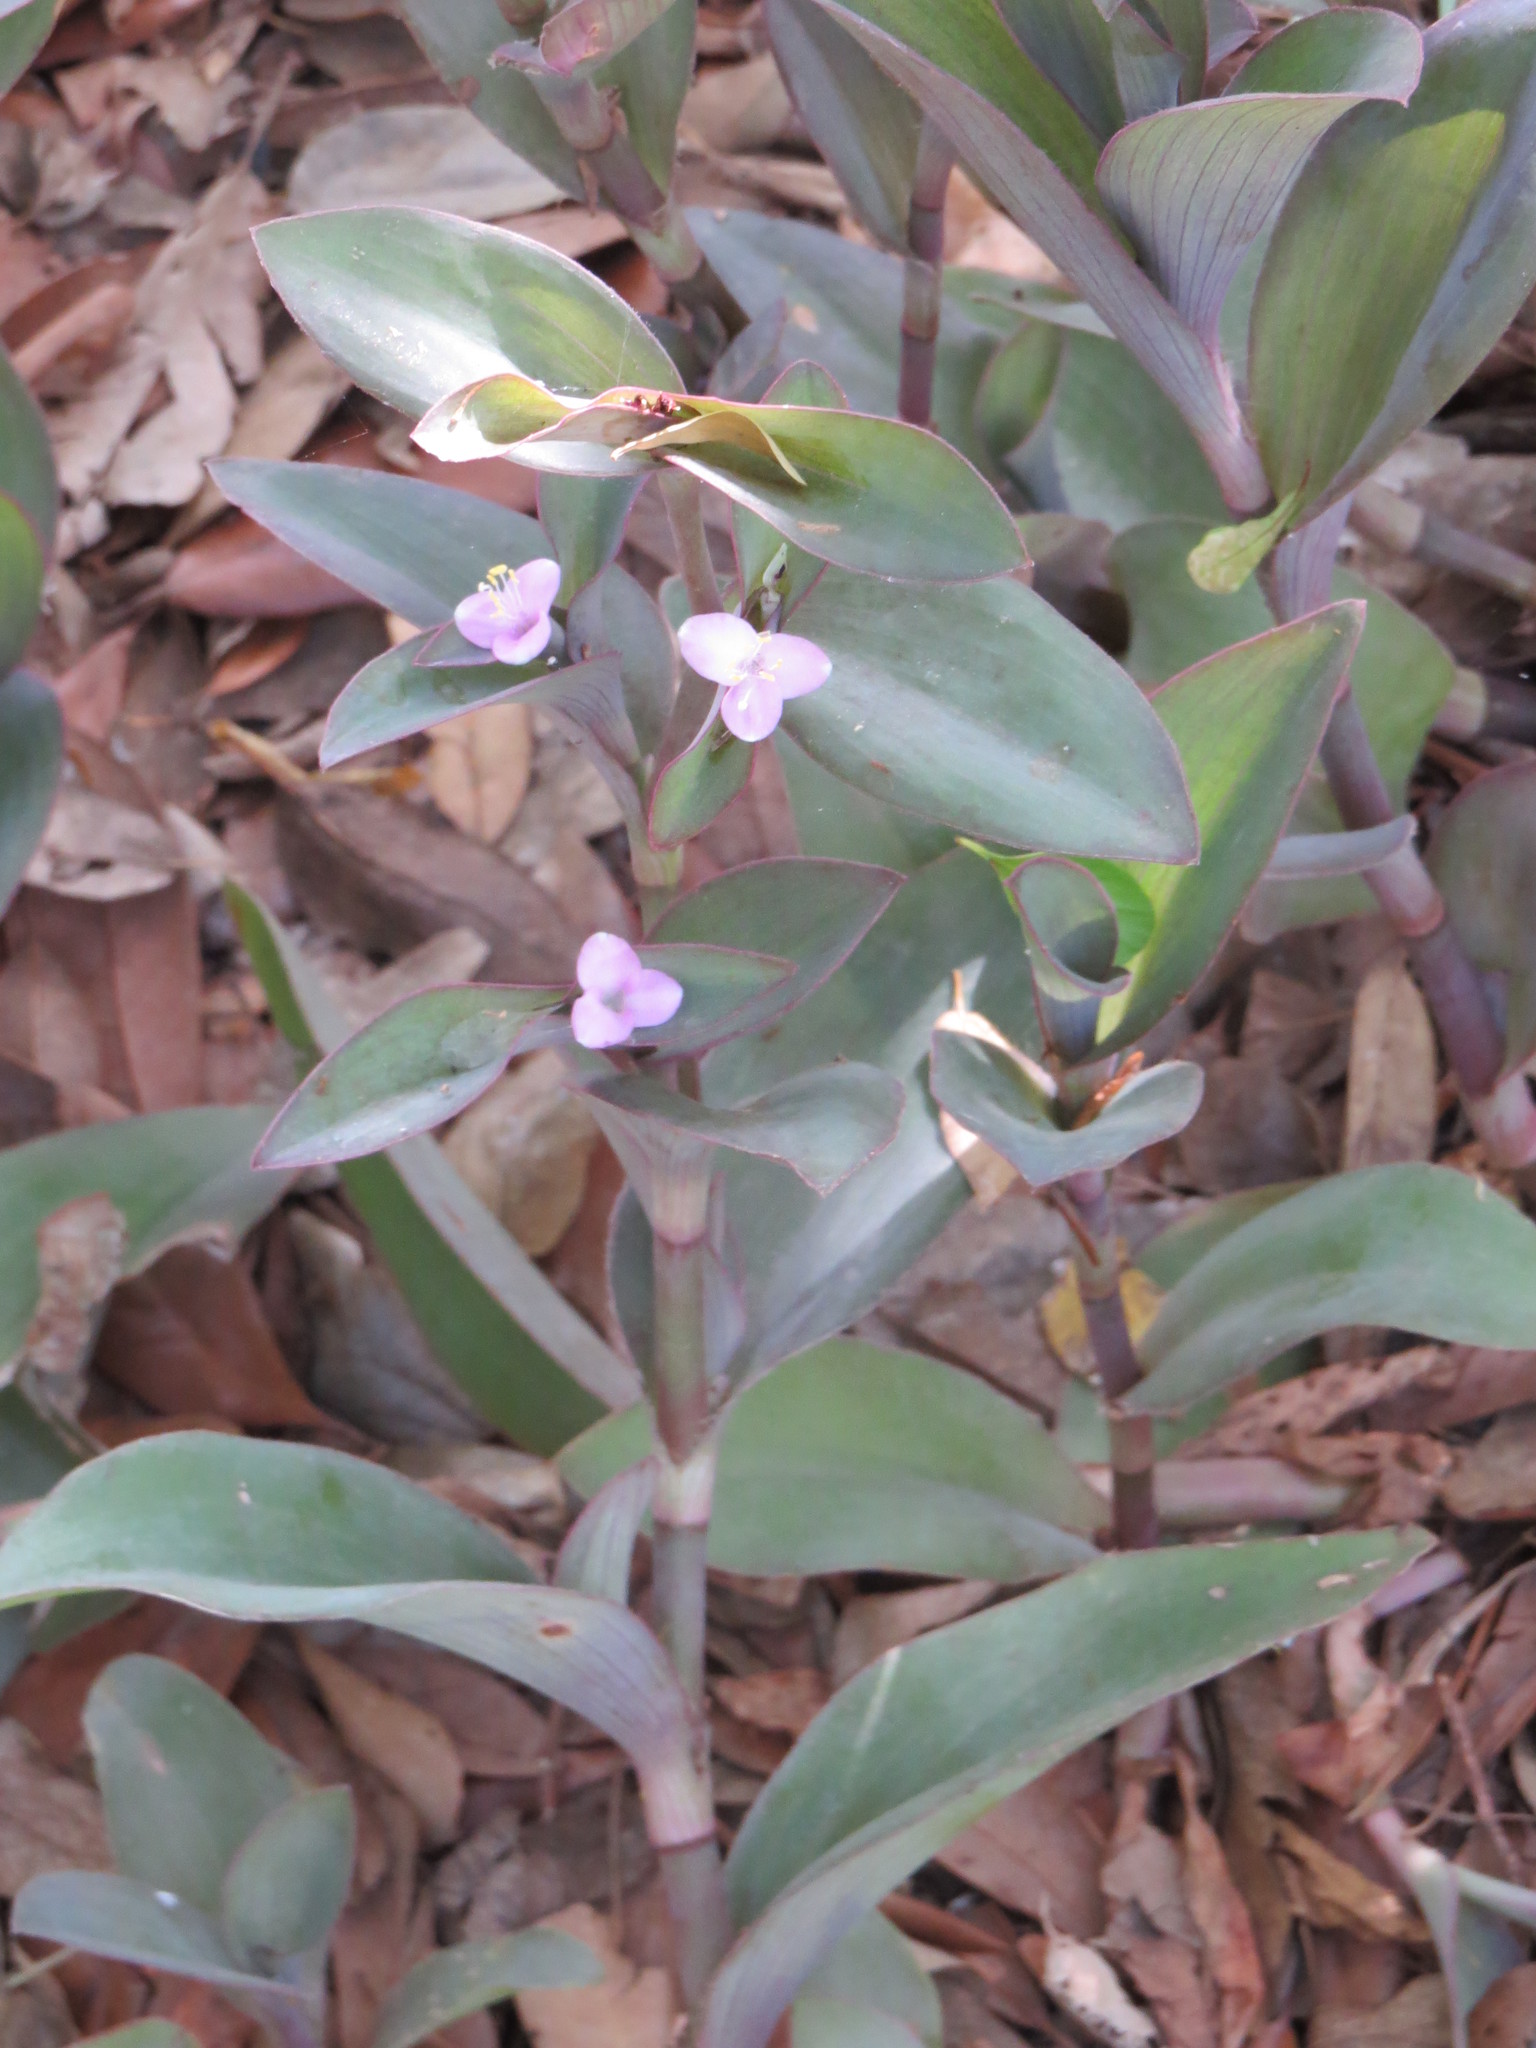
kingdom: Plantae
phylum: Tracheophyta
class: Liliopsida
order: Commelinales
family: Commelinaceae
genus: Tradescantia
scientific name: Tradescantia pallida
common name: Purpleheart
